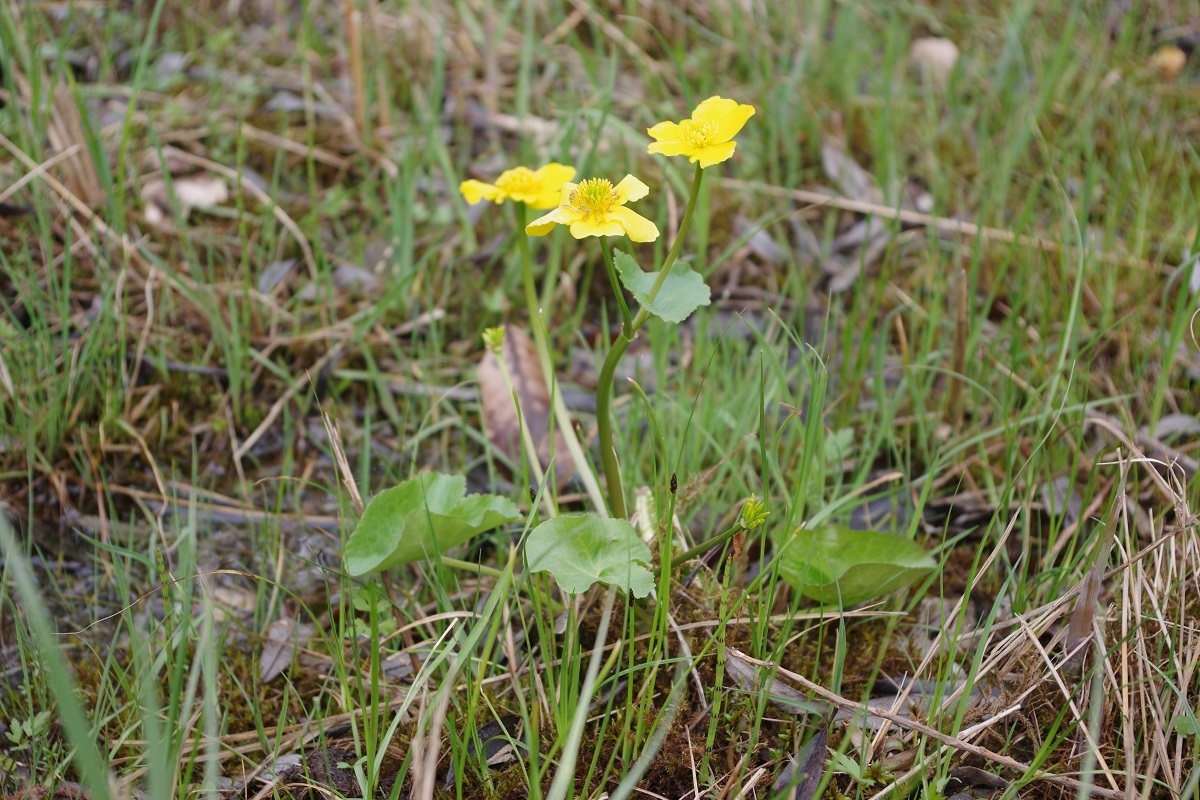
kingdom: Plantae
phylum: Tracheophyta
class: Magnoliopsida
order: Ranunculales
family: Ranunculaceae
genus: Caltha
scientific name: Caltha palustris
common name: Marsh marigold
